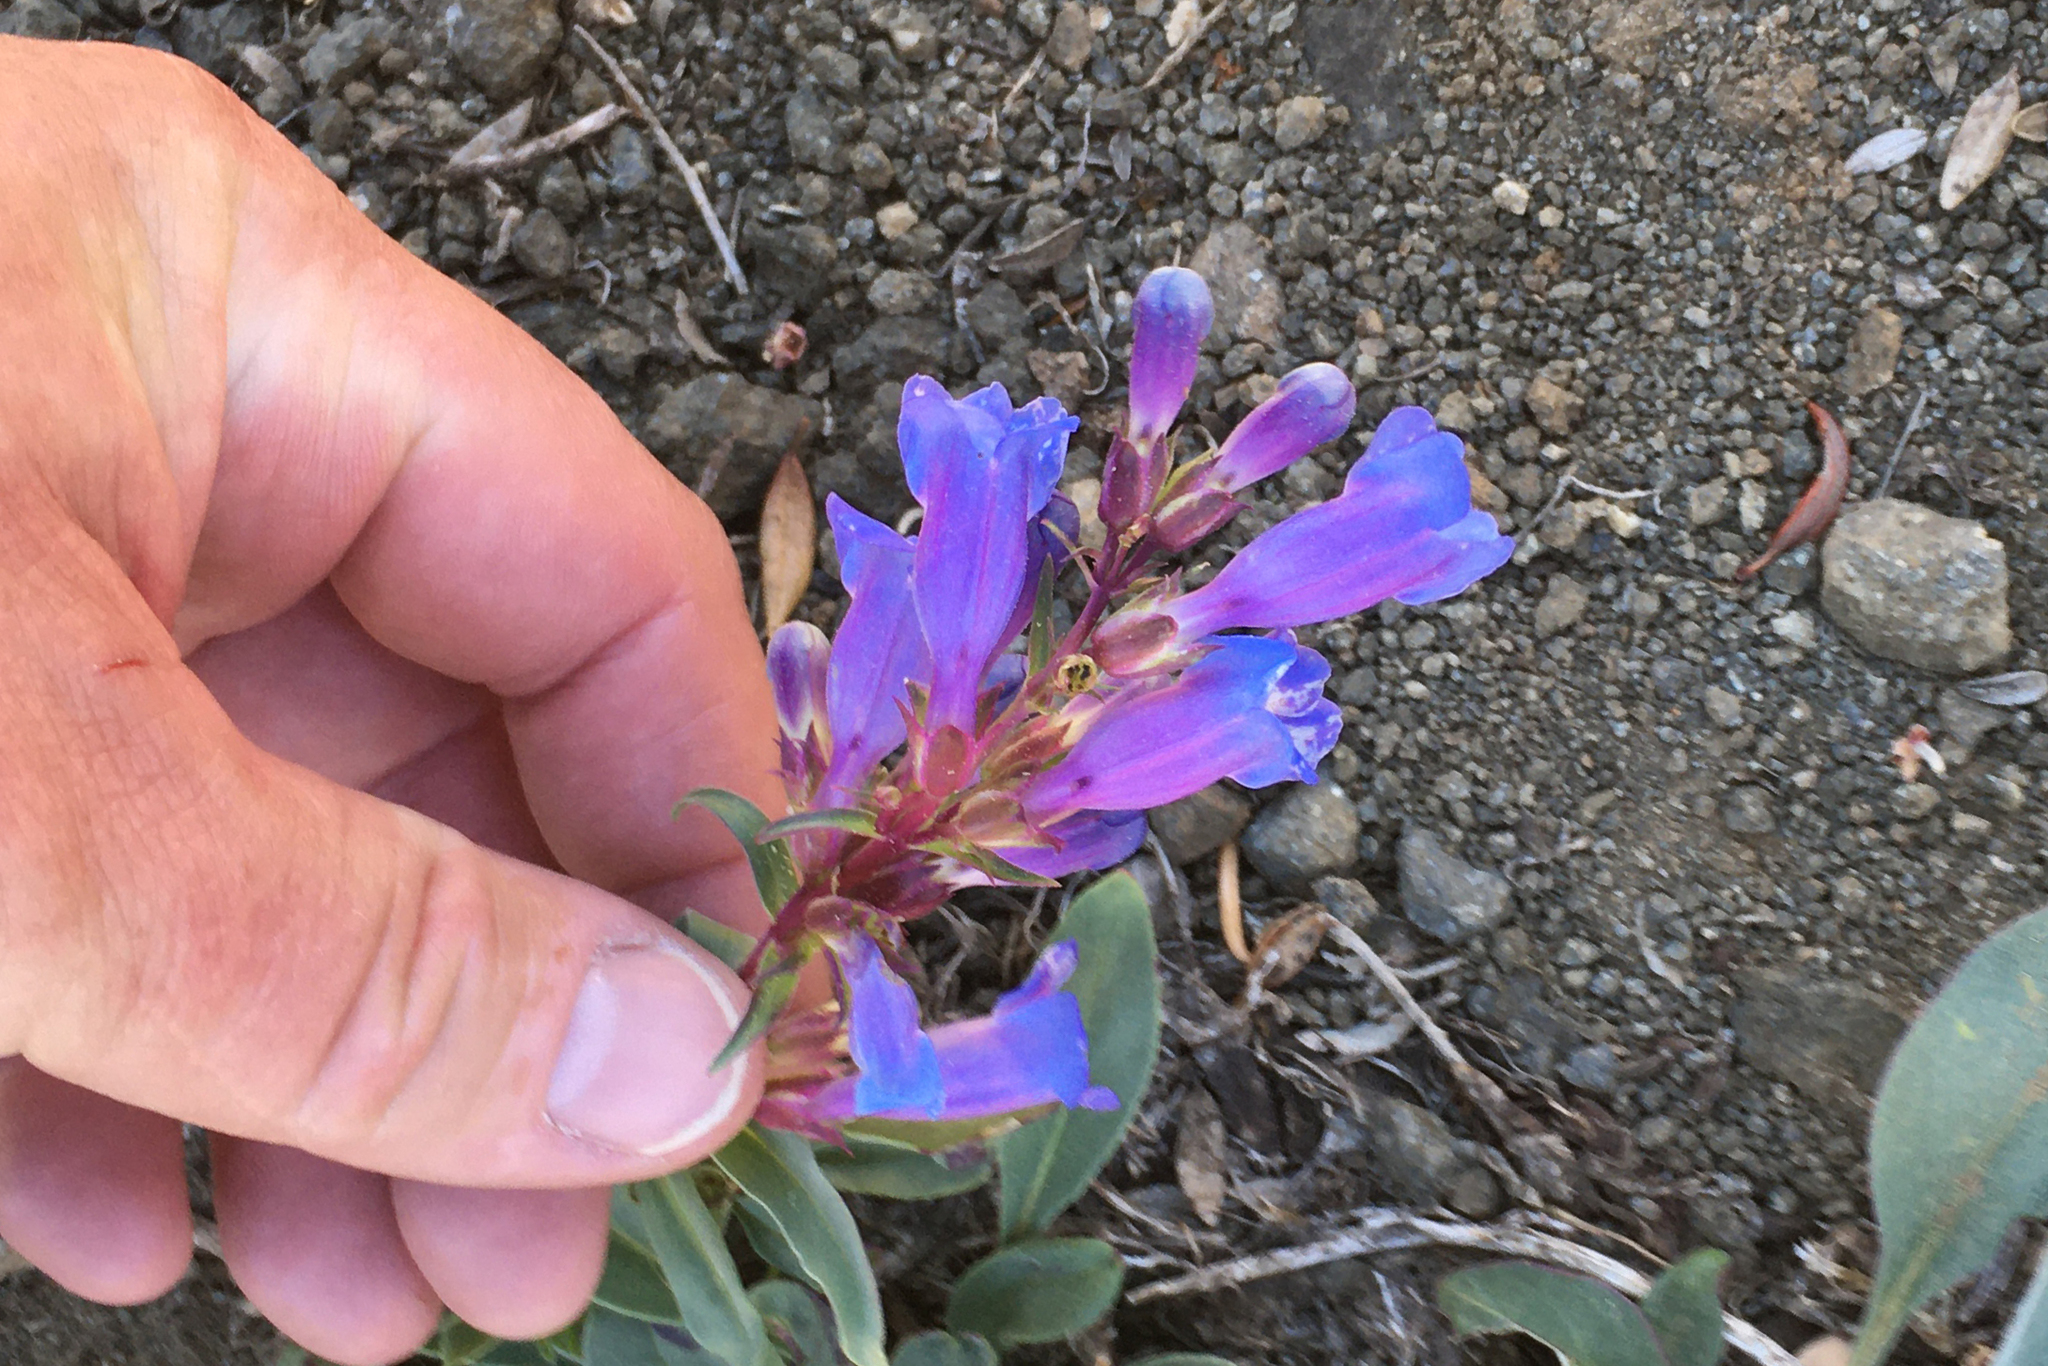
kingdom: Plantae
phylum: Tracheophyta
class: Magnoliopsida
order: Lamiales
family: Plantaginaceae
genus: Penstemon
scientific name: Penstemon speciosus
